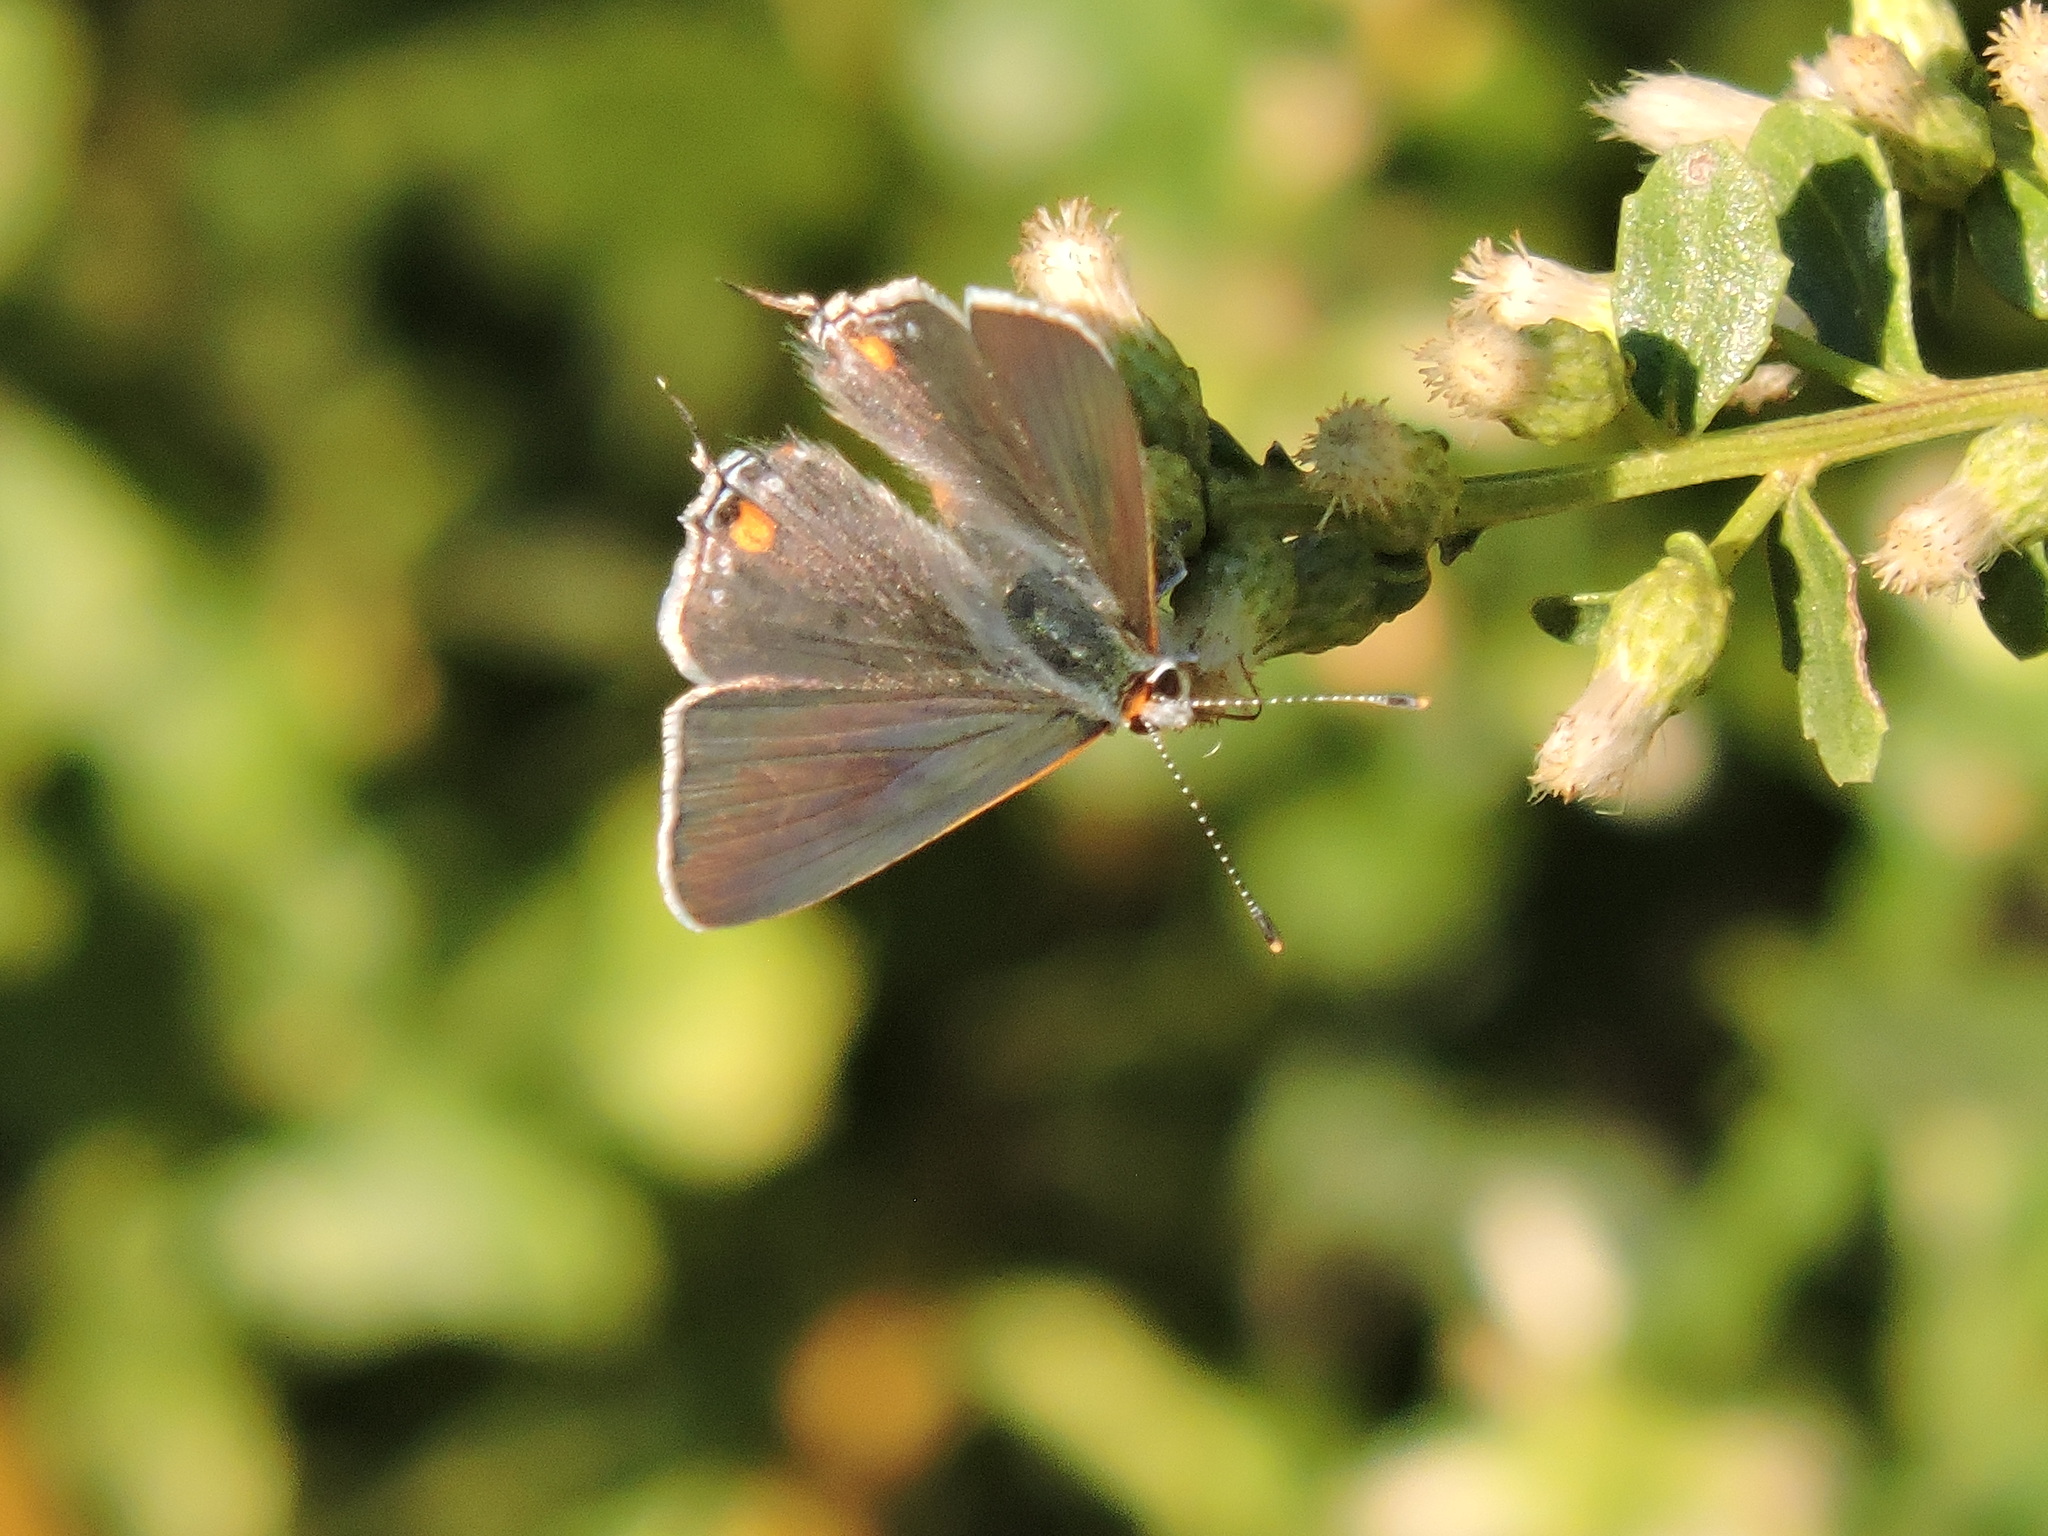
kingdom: Animalia
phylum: Arthropoda
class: Insecta
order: Lepidoptera
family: Lycaenidae
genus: Strymon
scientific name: Strymon melinus
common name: Gray hairstreak
